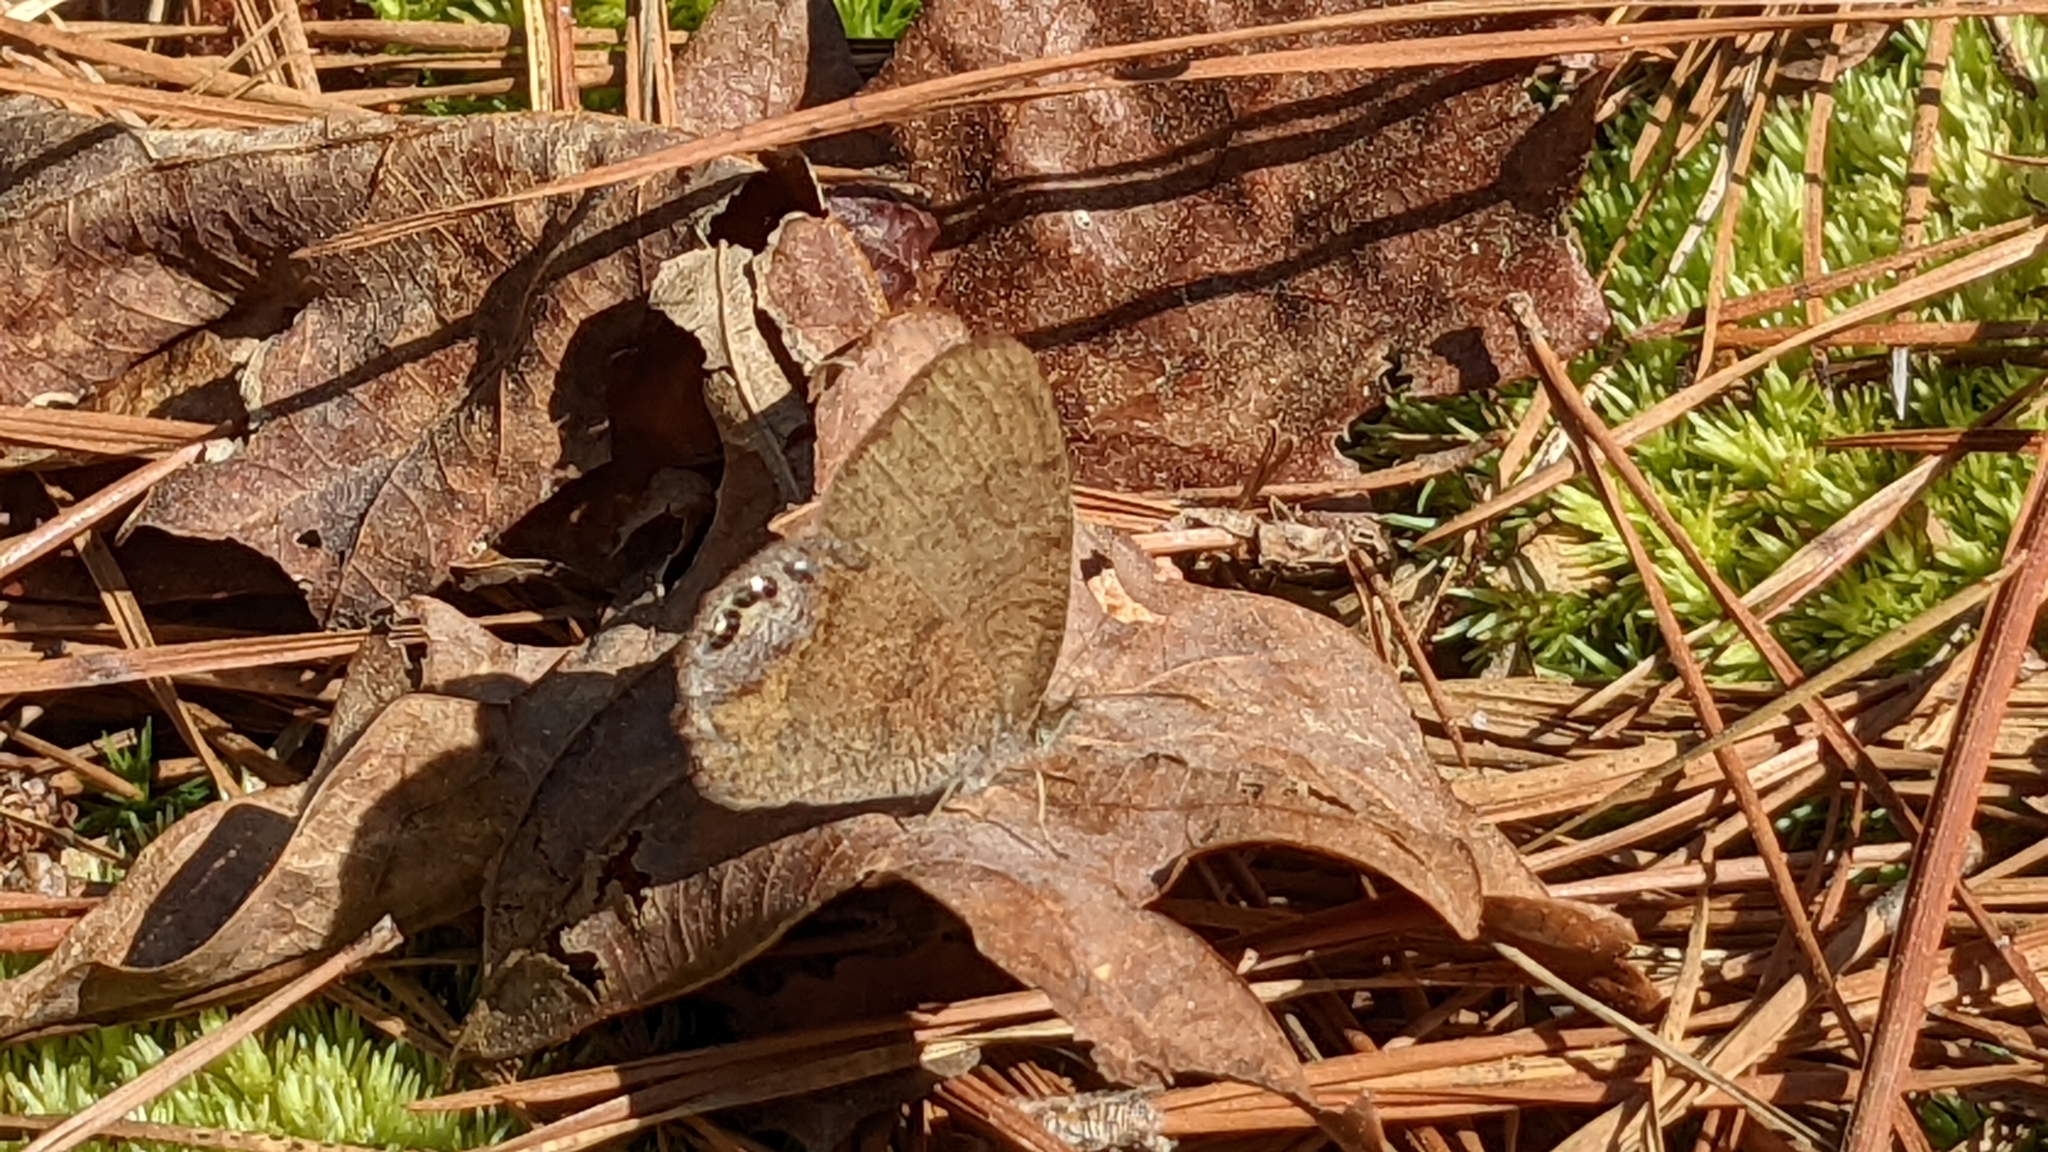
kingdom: Animalia
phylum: Arthropoda
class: Insecta
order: Lepidoptera
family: Nymphalidae
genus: Euptychia
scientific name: Euptychia cornelius
